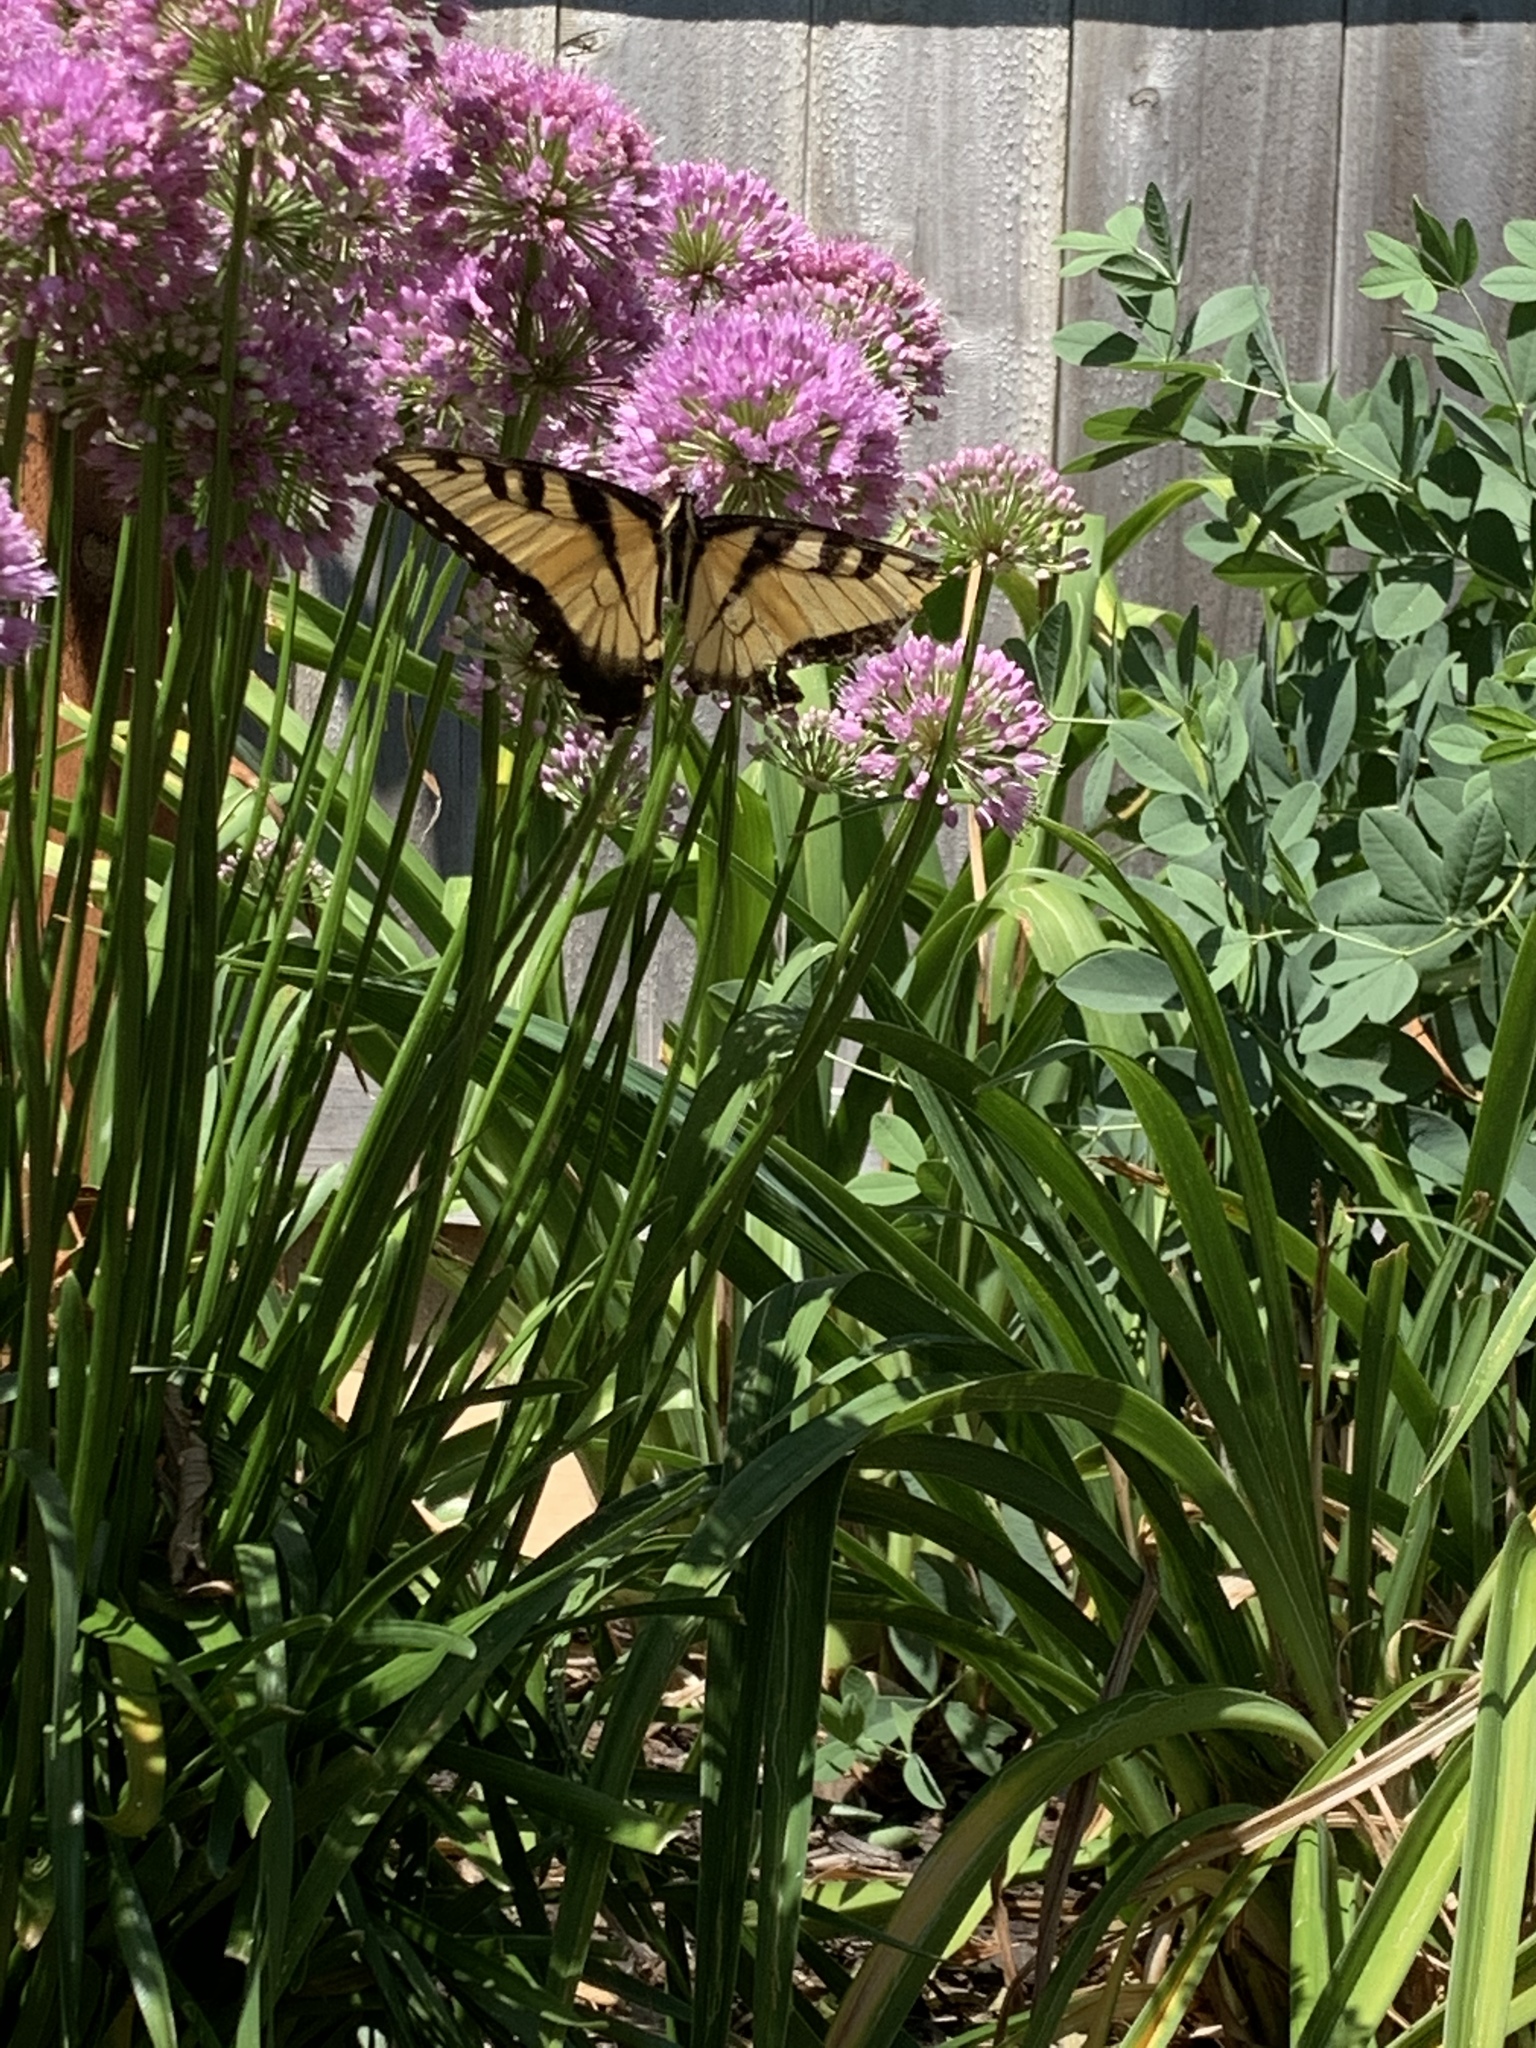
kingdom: Animalia
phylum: Arthropoda
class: Insecta
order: Lepidoptera
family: Papilionidae
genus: Papilio
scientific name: Papilio glaucus
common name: Tiger swallowtail
